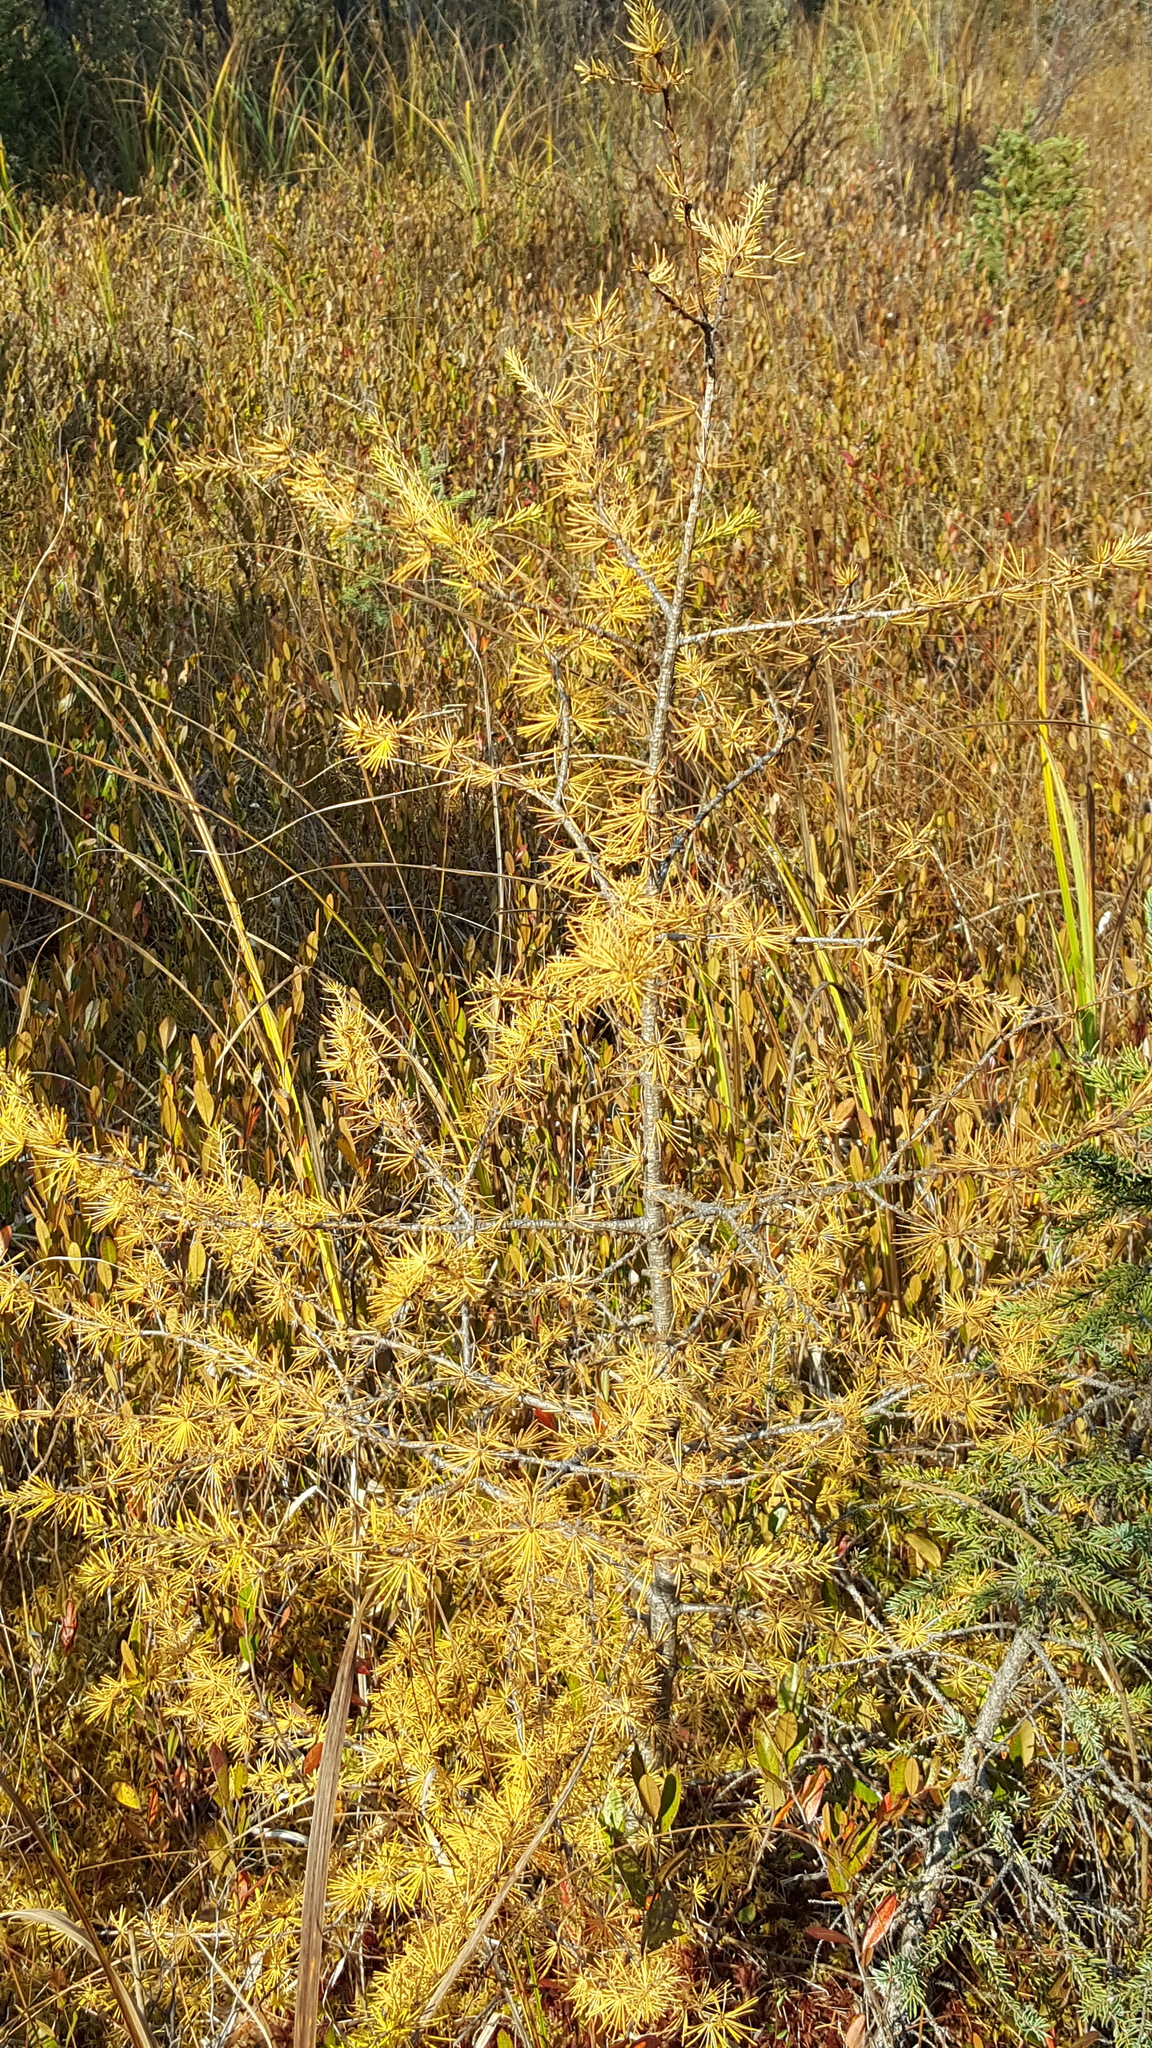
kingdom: Plantae
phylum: Tracheophyta
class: Pinopsida
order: Pinales
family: Pinaceae
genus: Larix
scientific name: Larix laricina
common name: American larch
